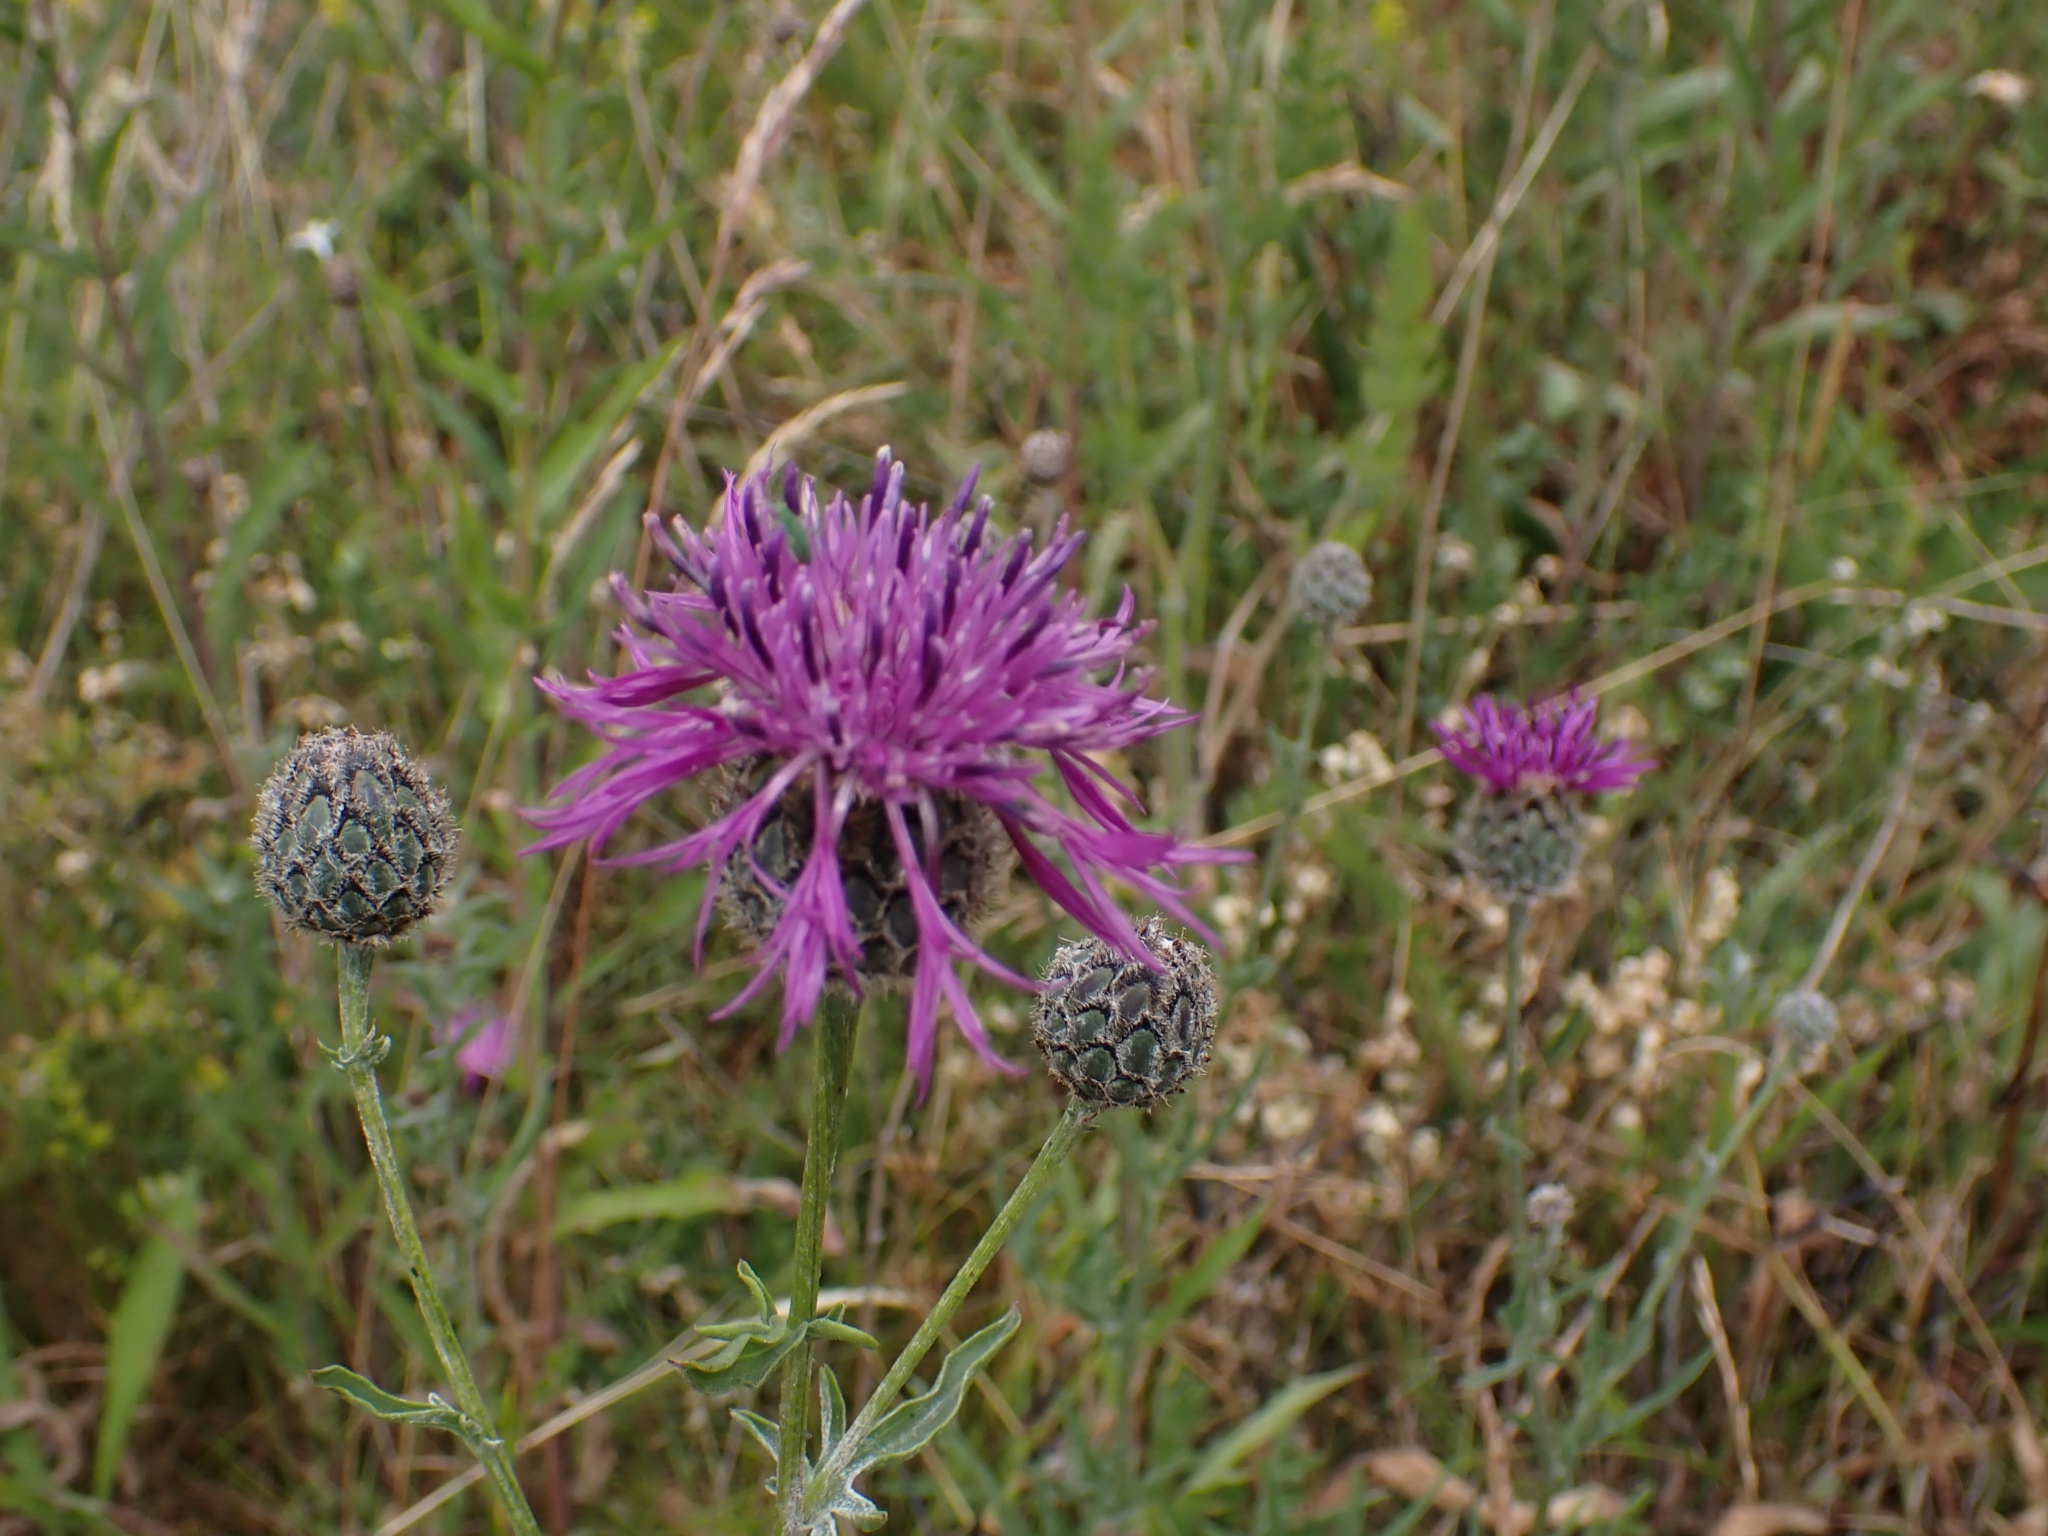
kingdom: Plantae
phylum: Tracheophyta
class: Magnoliopsida
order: Asterales
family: Asteraceae
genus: Centaurea
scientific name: Centaurea scabiosa
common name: Greater knapweed
